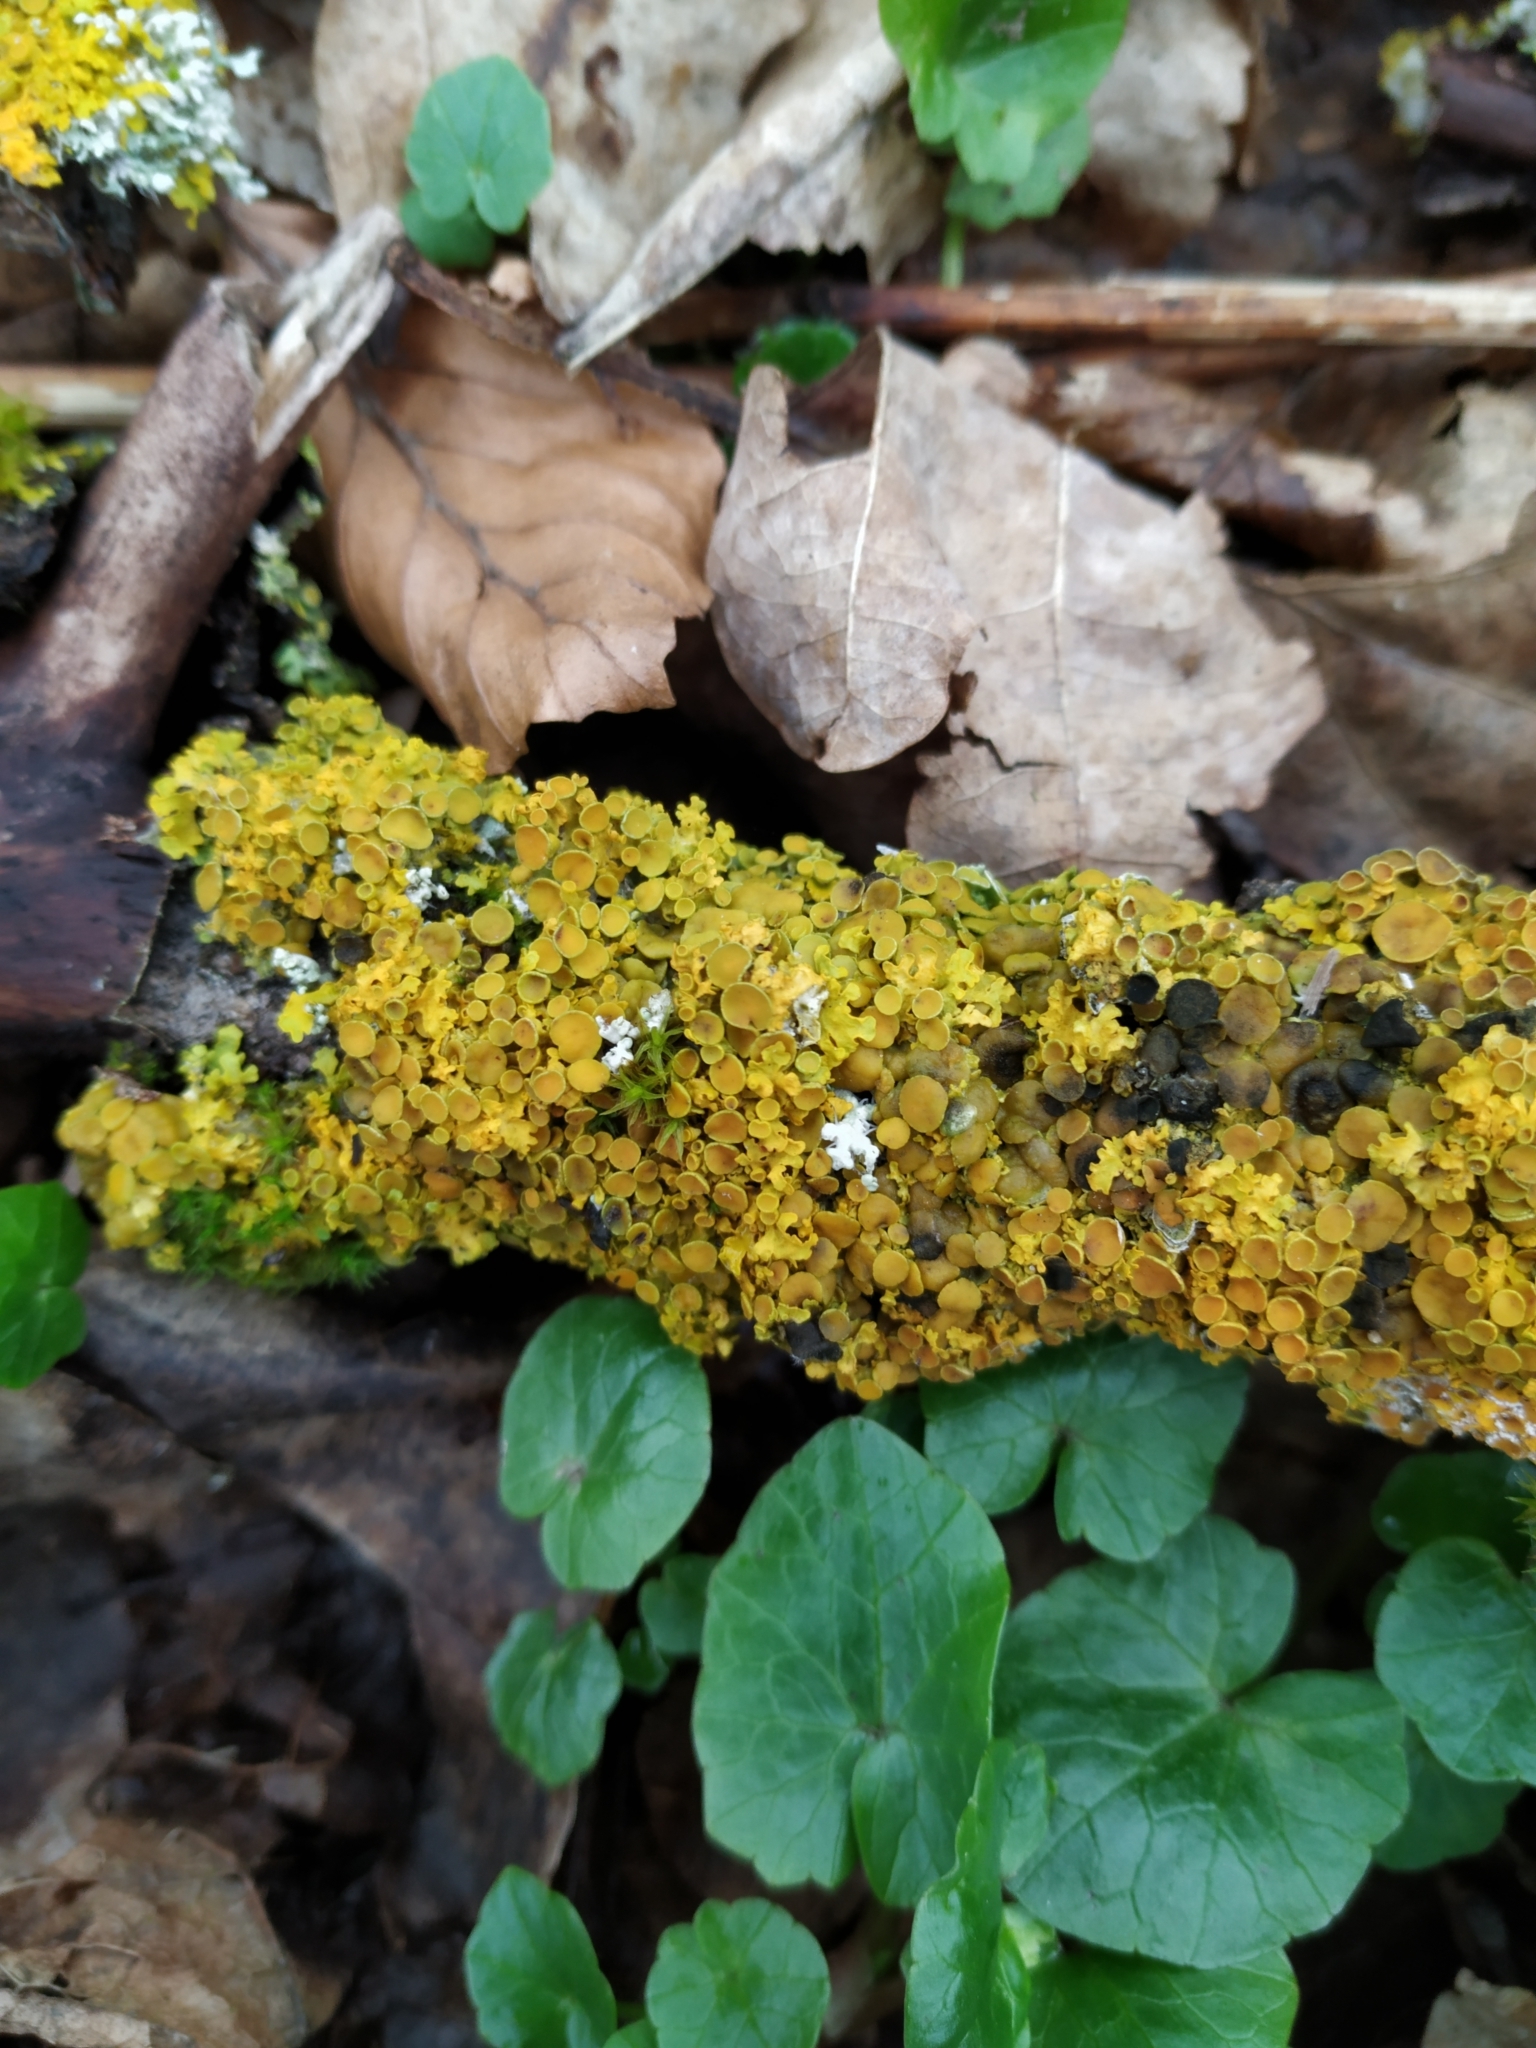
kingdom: Fungi
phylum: Ascomycota
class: Lecanoromycetes
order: Teloschistales
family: Teloschistaceae
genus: Xanthoria
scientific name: Xanthoria parietina
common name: Common orange lichen
